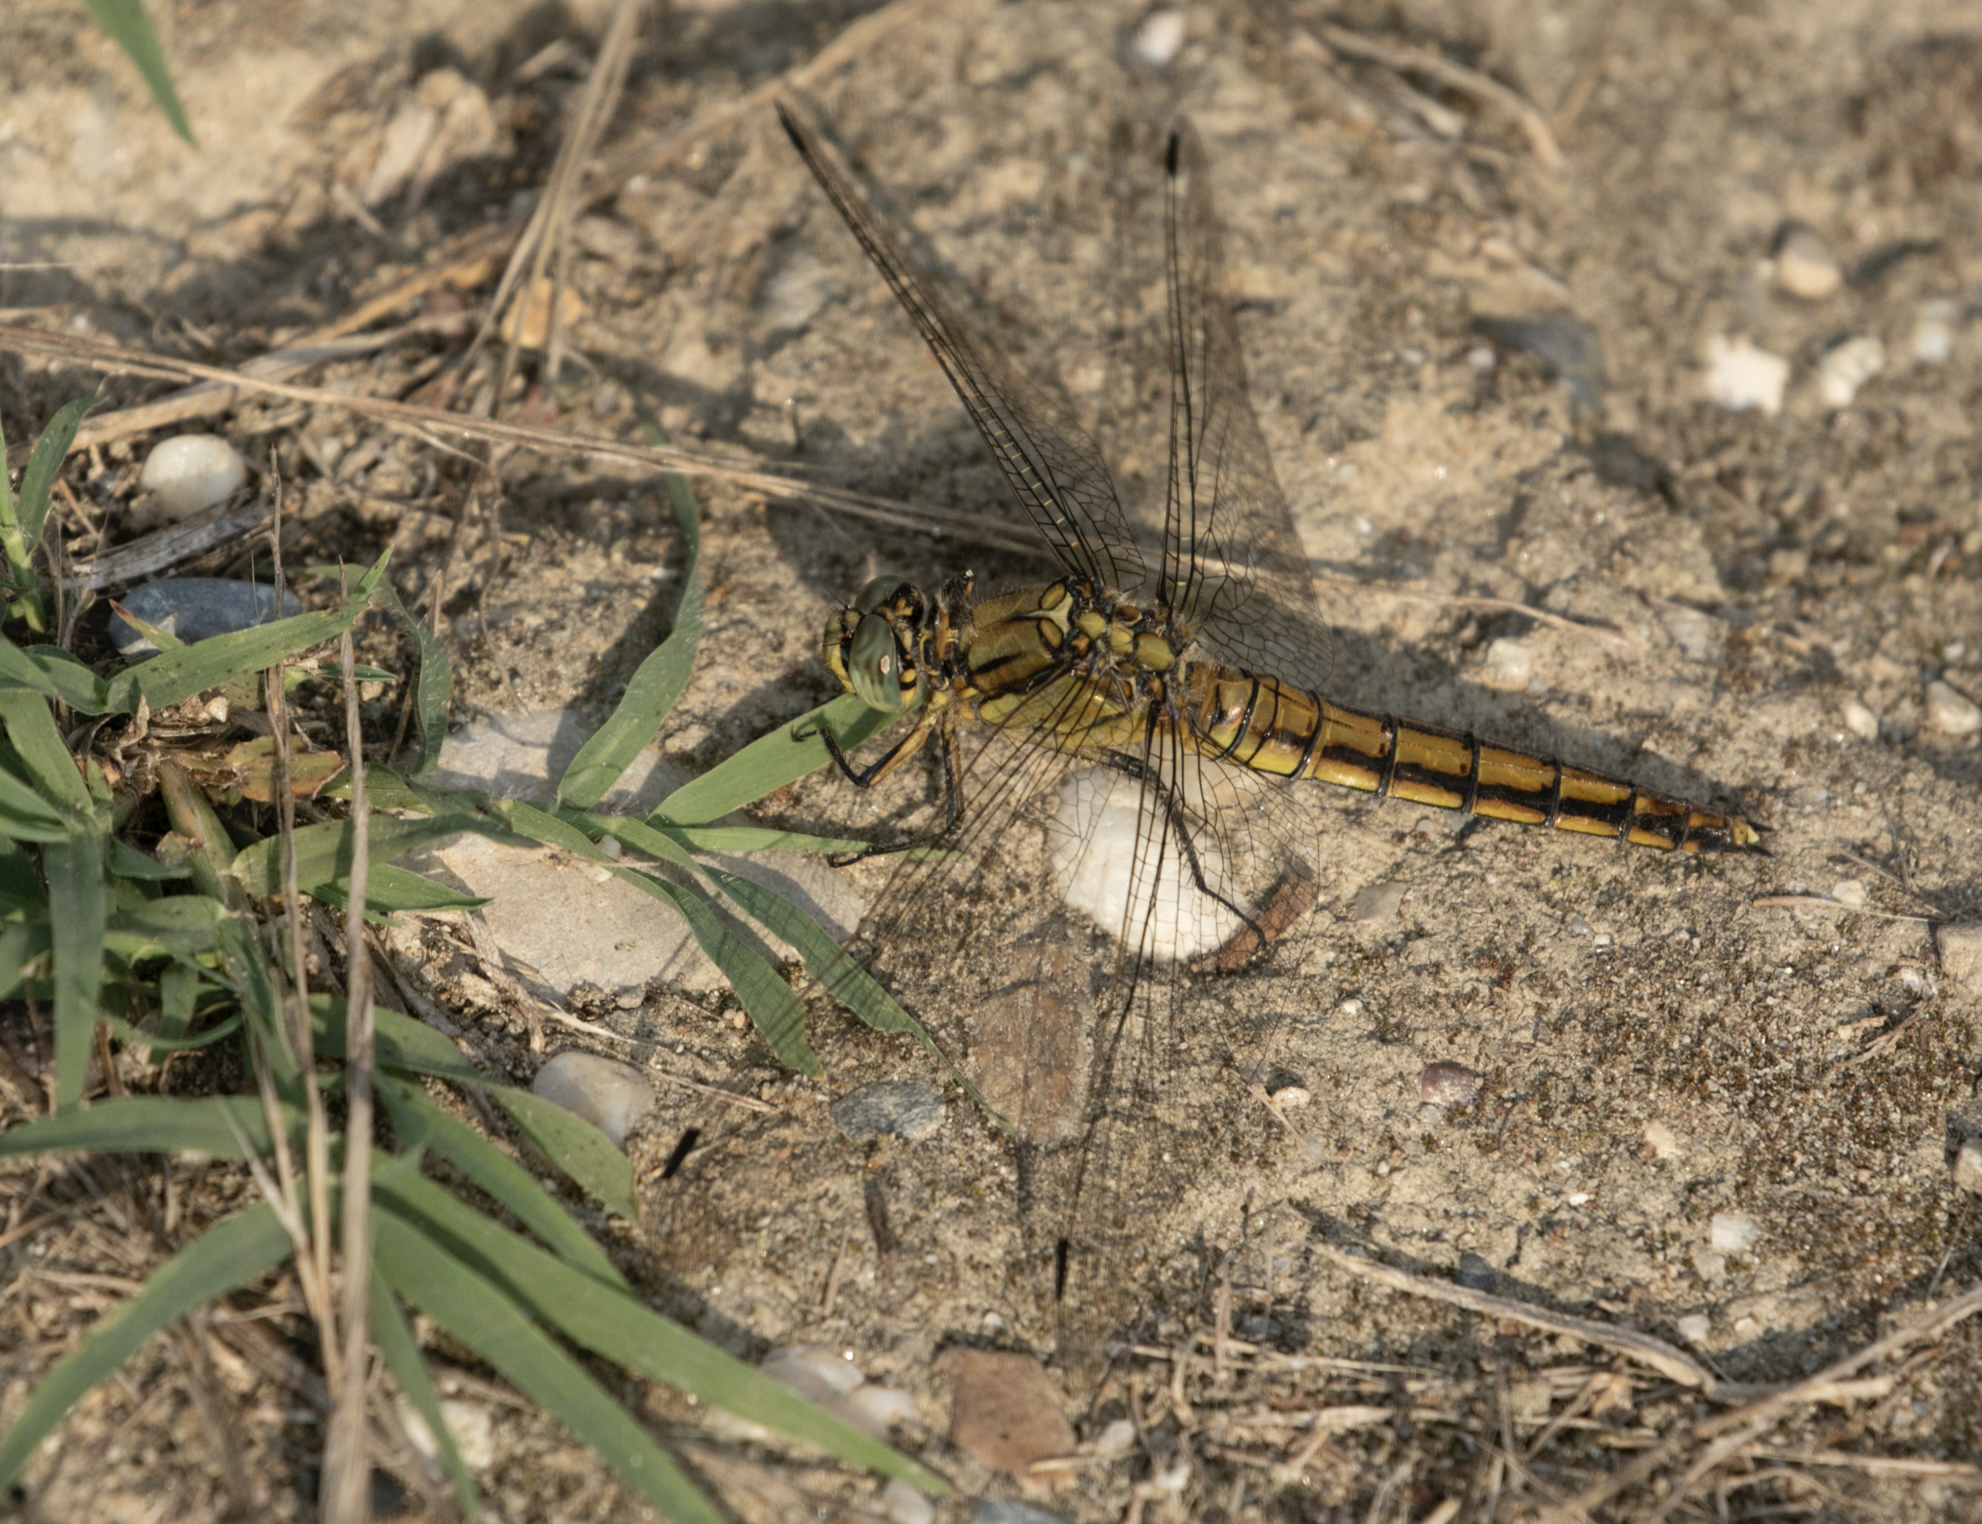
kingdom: Animalia
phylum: Arthropoda
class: Insecta
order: Odonata
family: Libellulidae
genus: Orthetrum
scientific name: Orthetrum cancellatum
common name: Black-tailed skimmer
